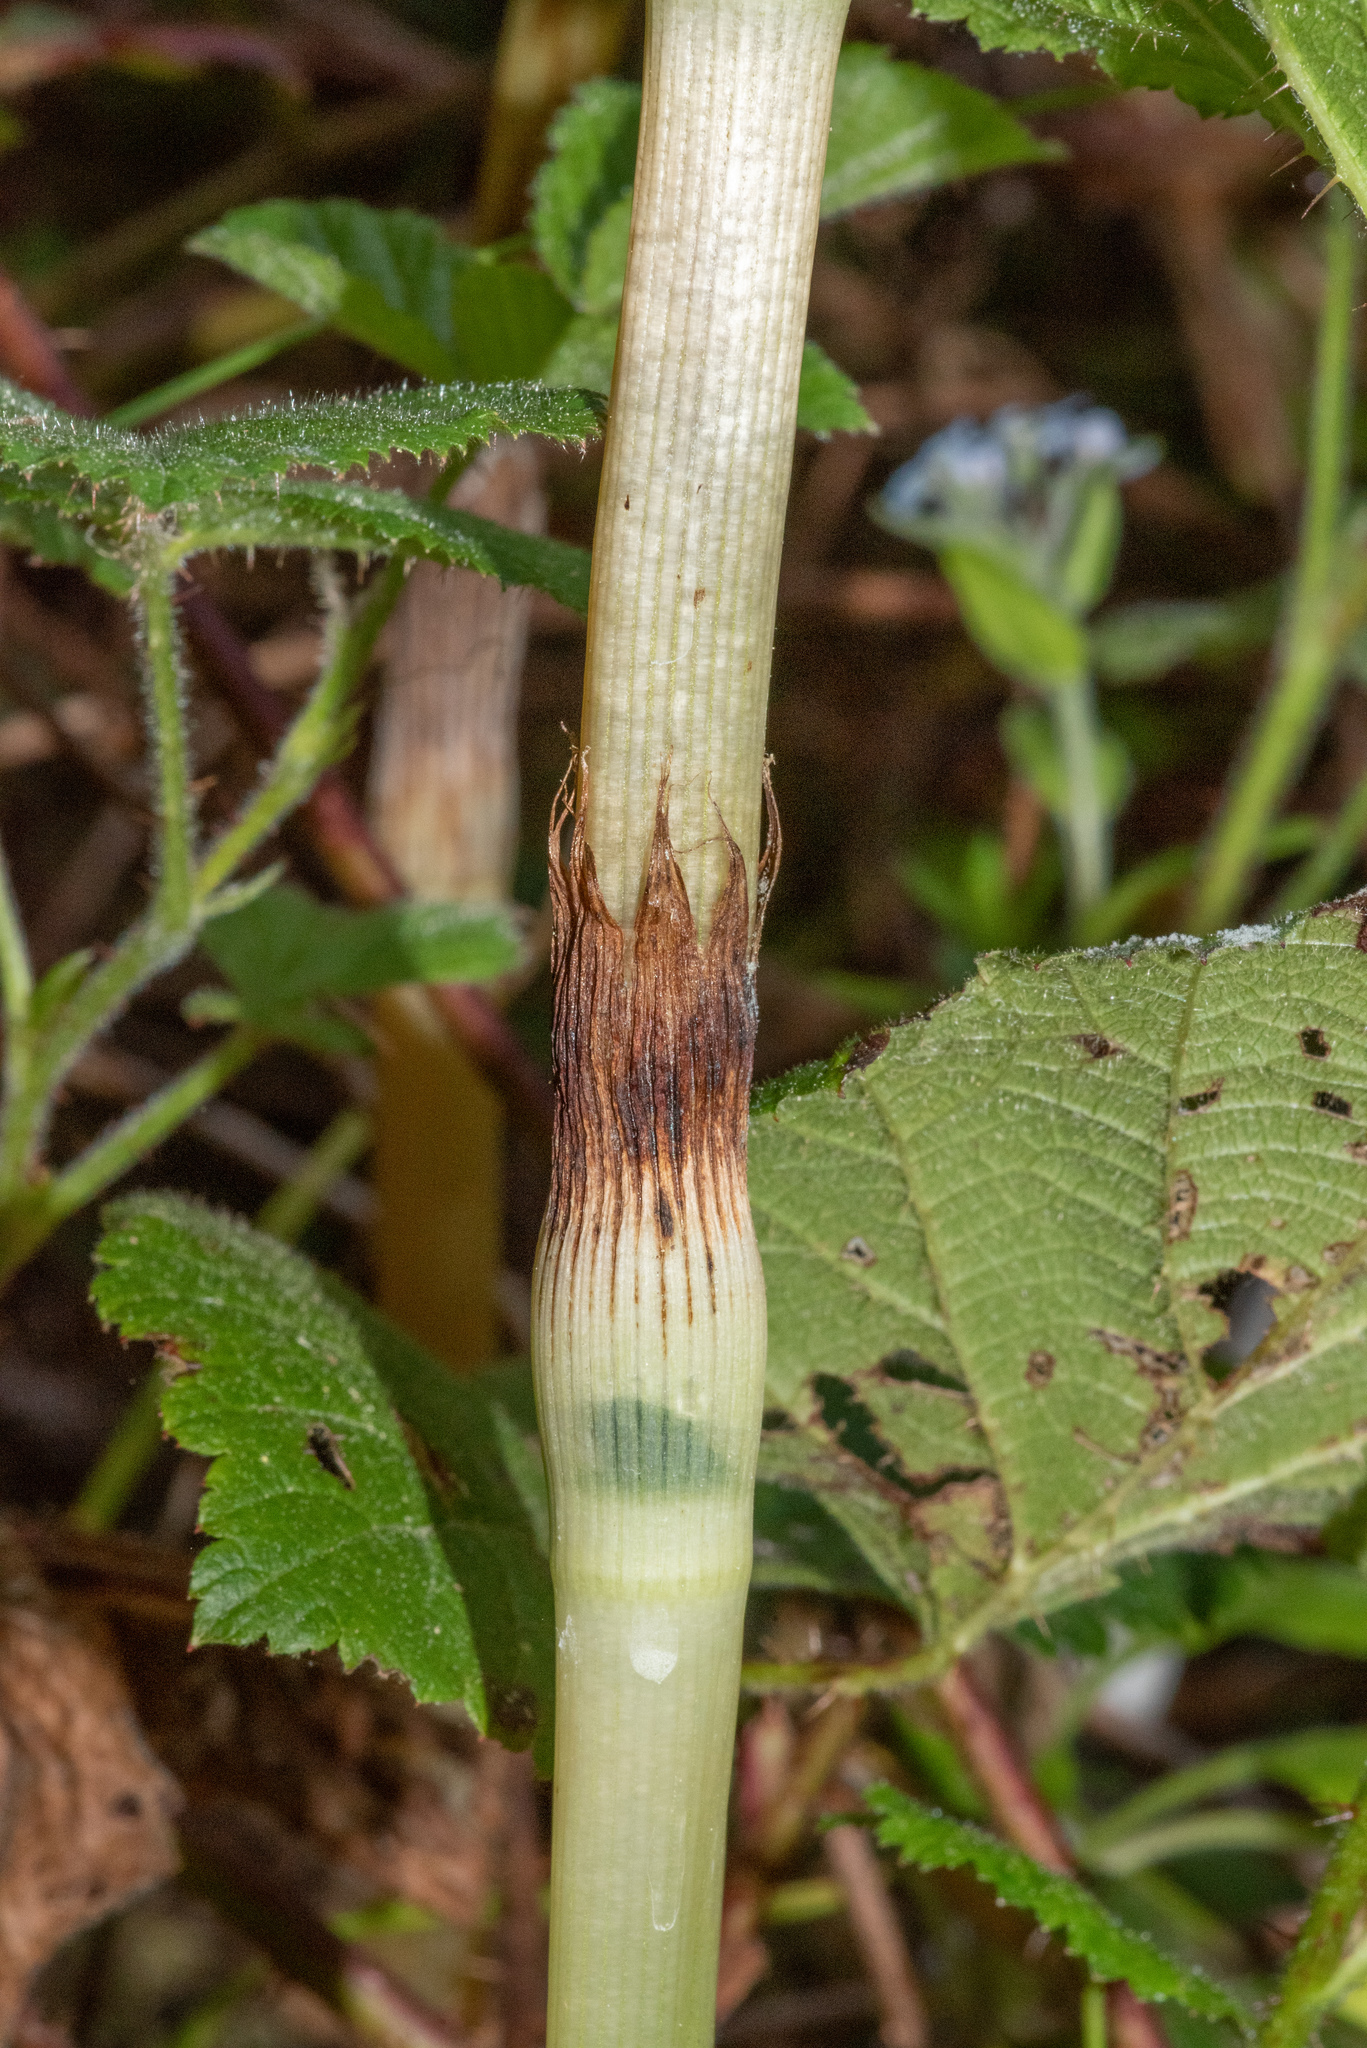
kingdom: Plantae
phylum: Tracheophyta
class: Polypodiopsida
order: Equisetales
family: Equisetaceae
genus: Equisetum
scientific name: Equisetum telmateia
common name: Great horsetail
